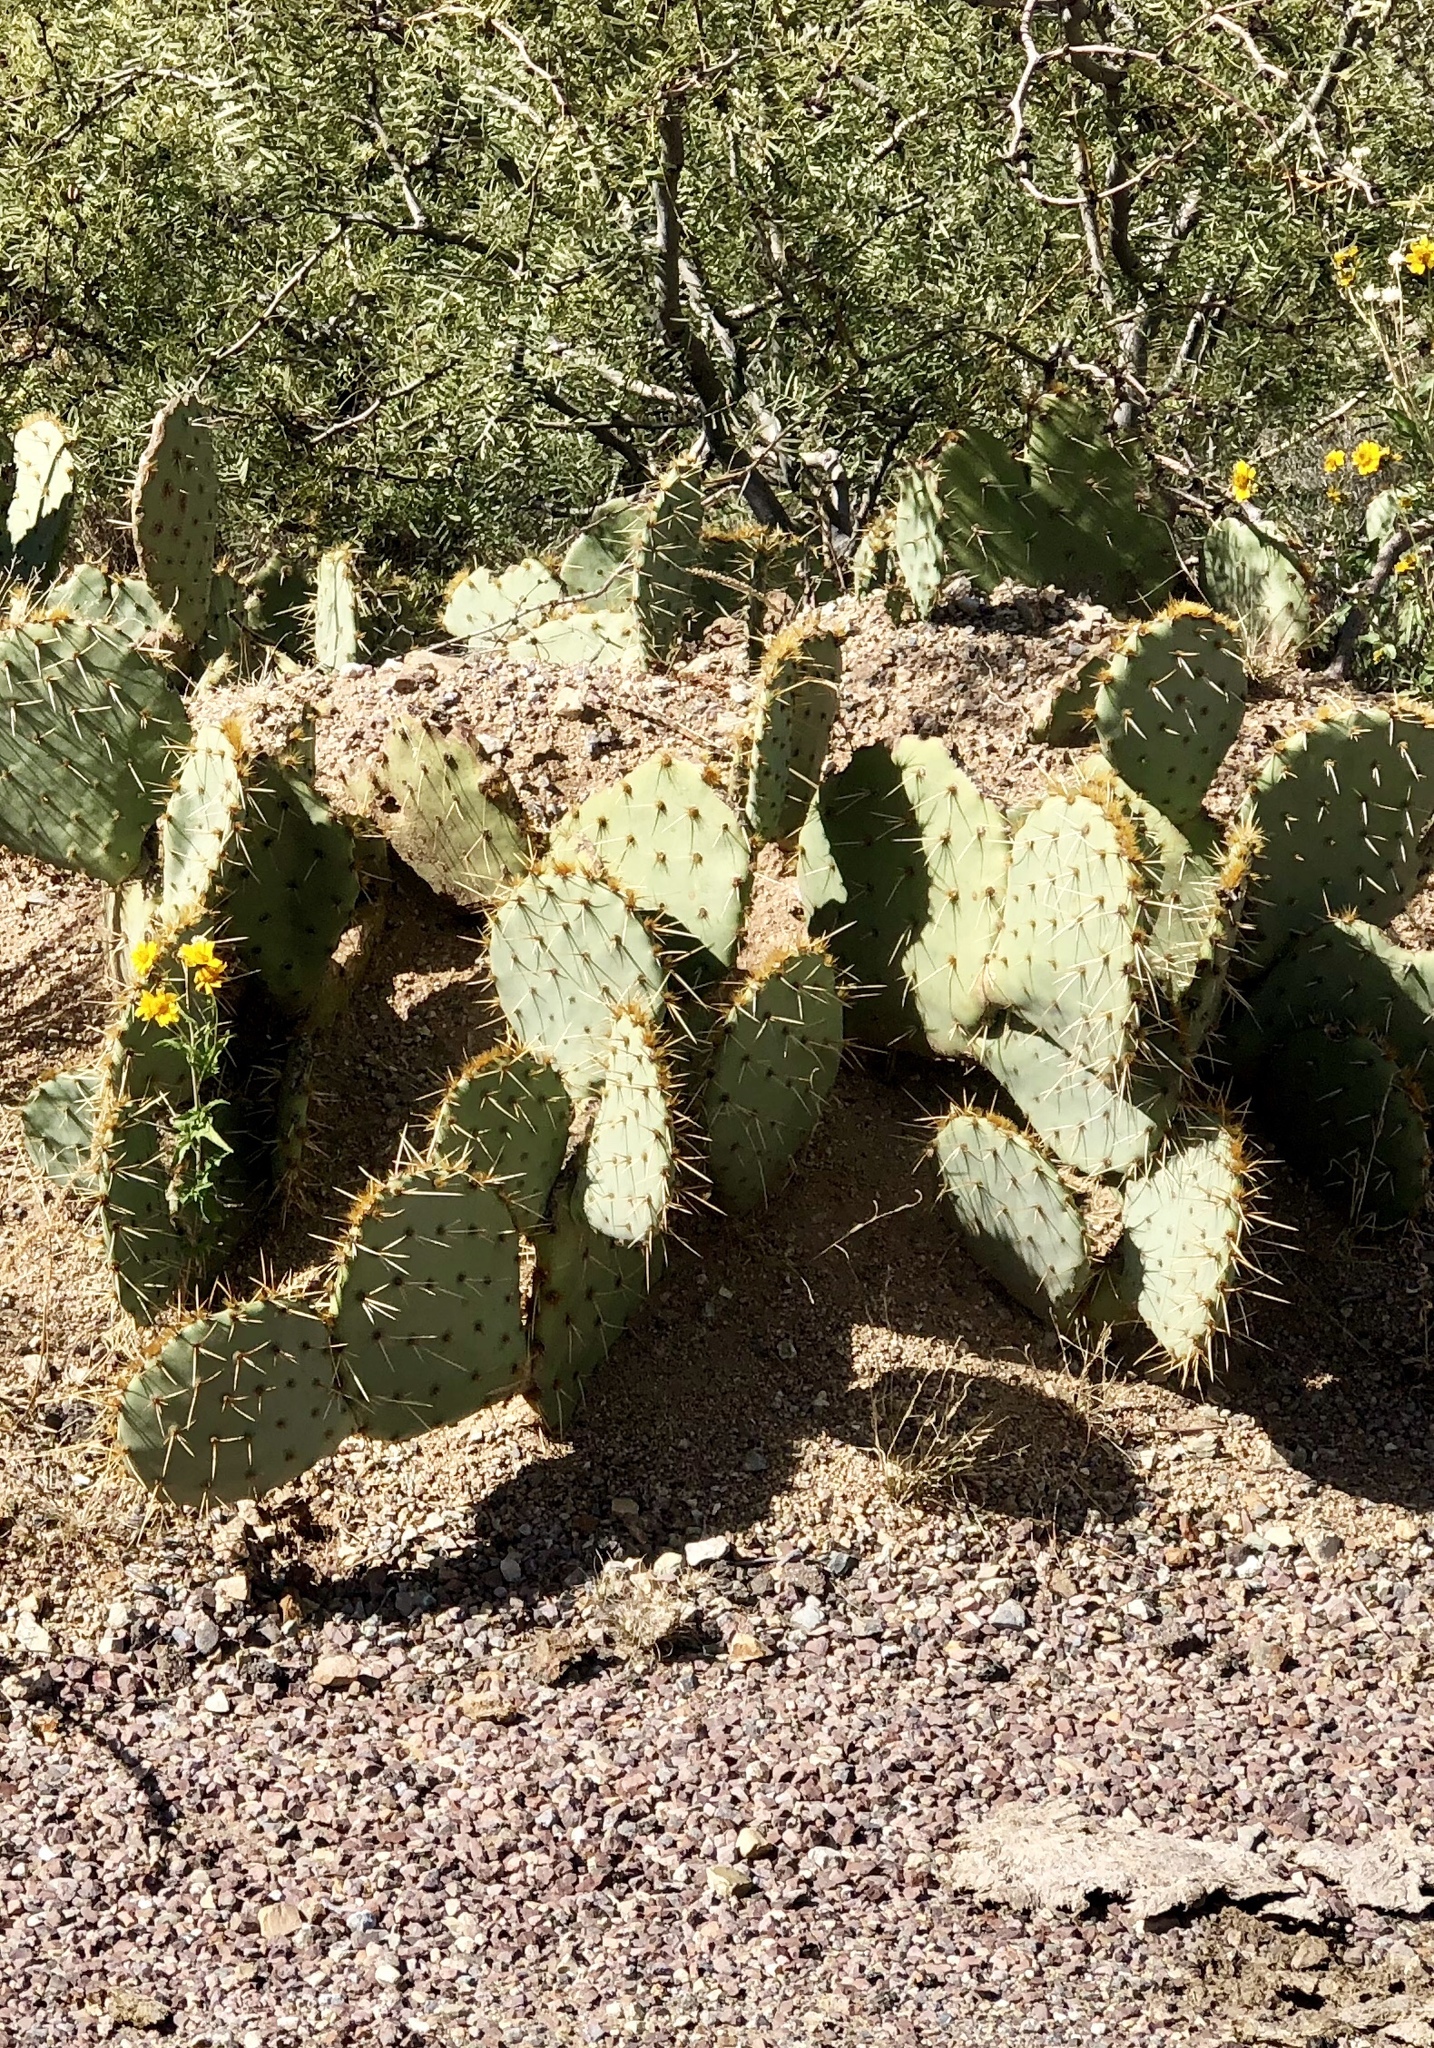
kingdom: Plantae
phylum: Tracheophyta
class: Magnoliopsida
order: Caryophyllales
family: Cactaceae
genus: Opuntia
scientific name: Opuntia engelmannii
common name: Cactus-apple
